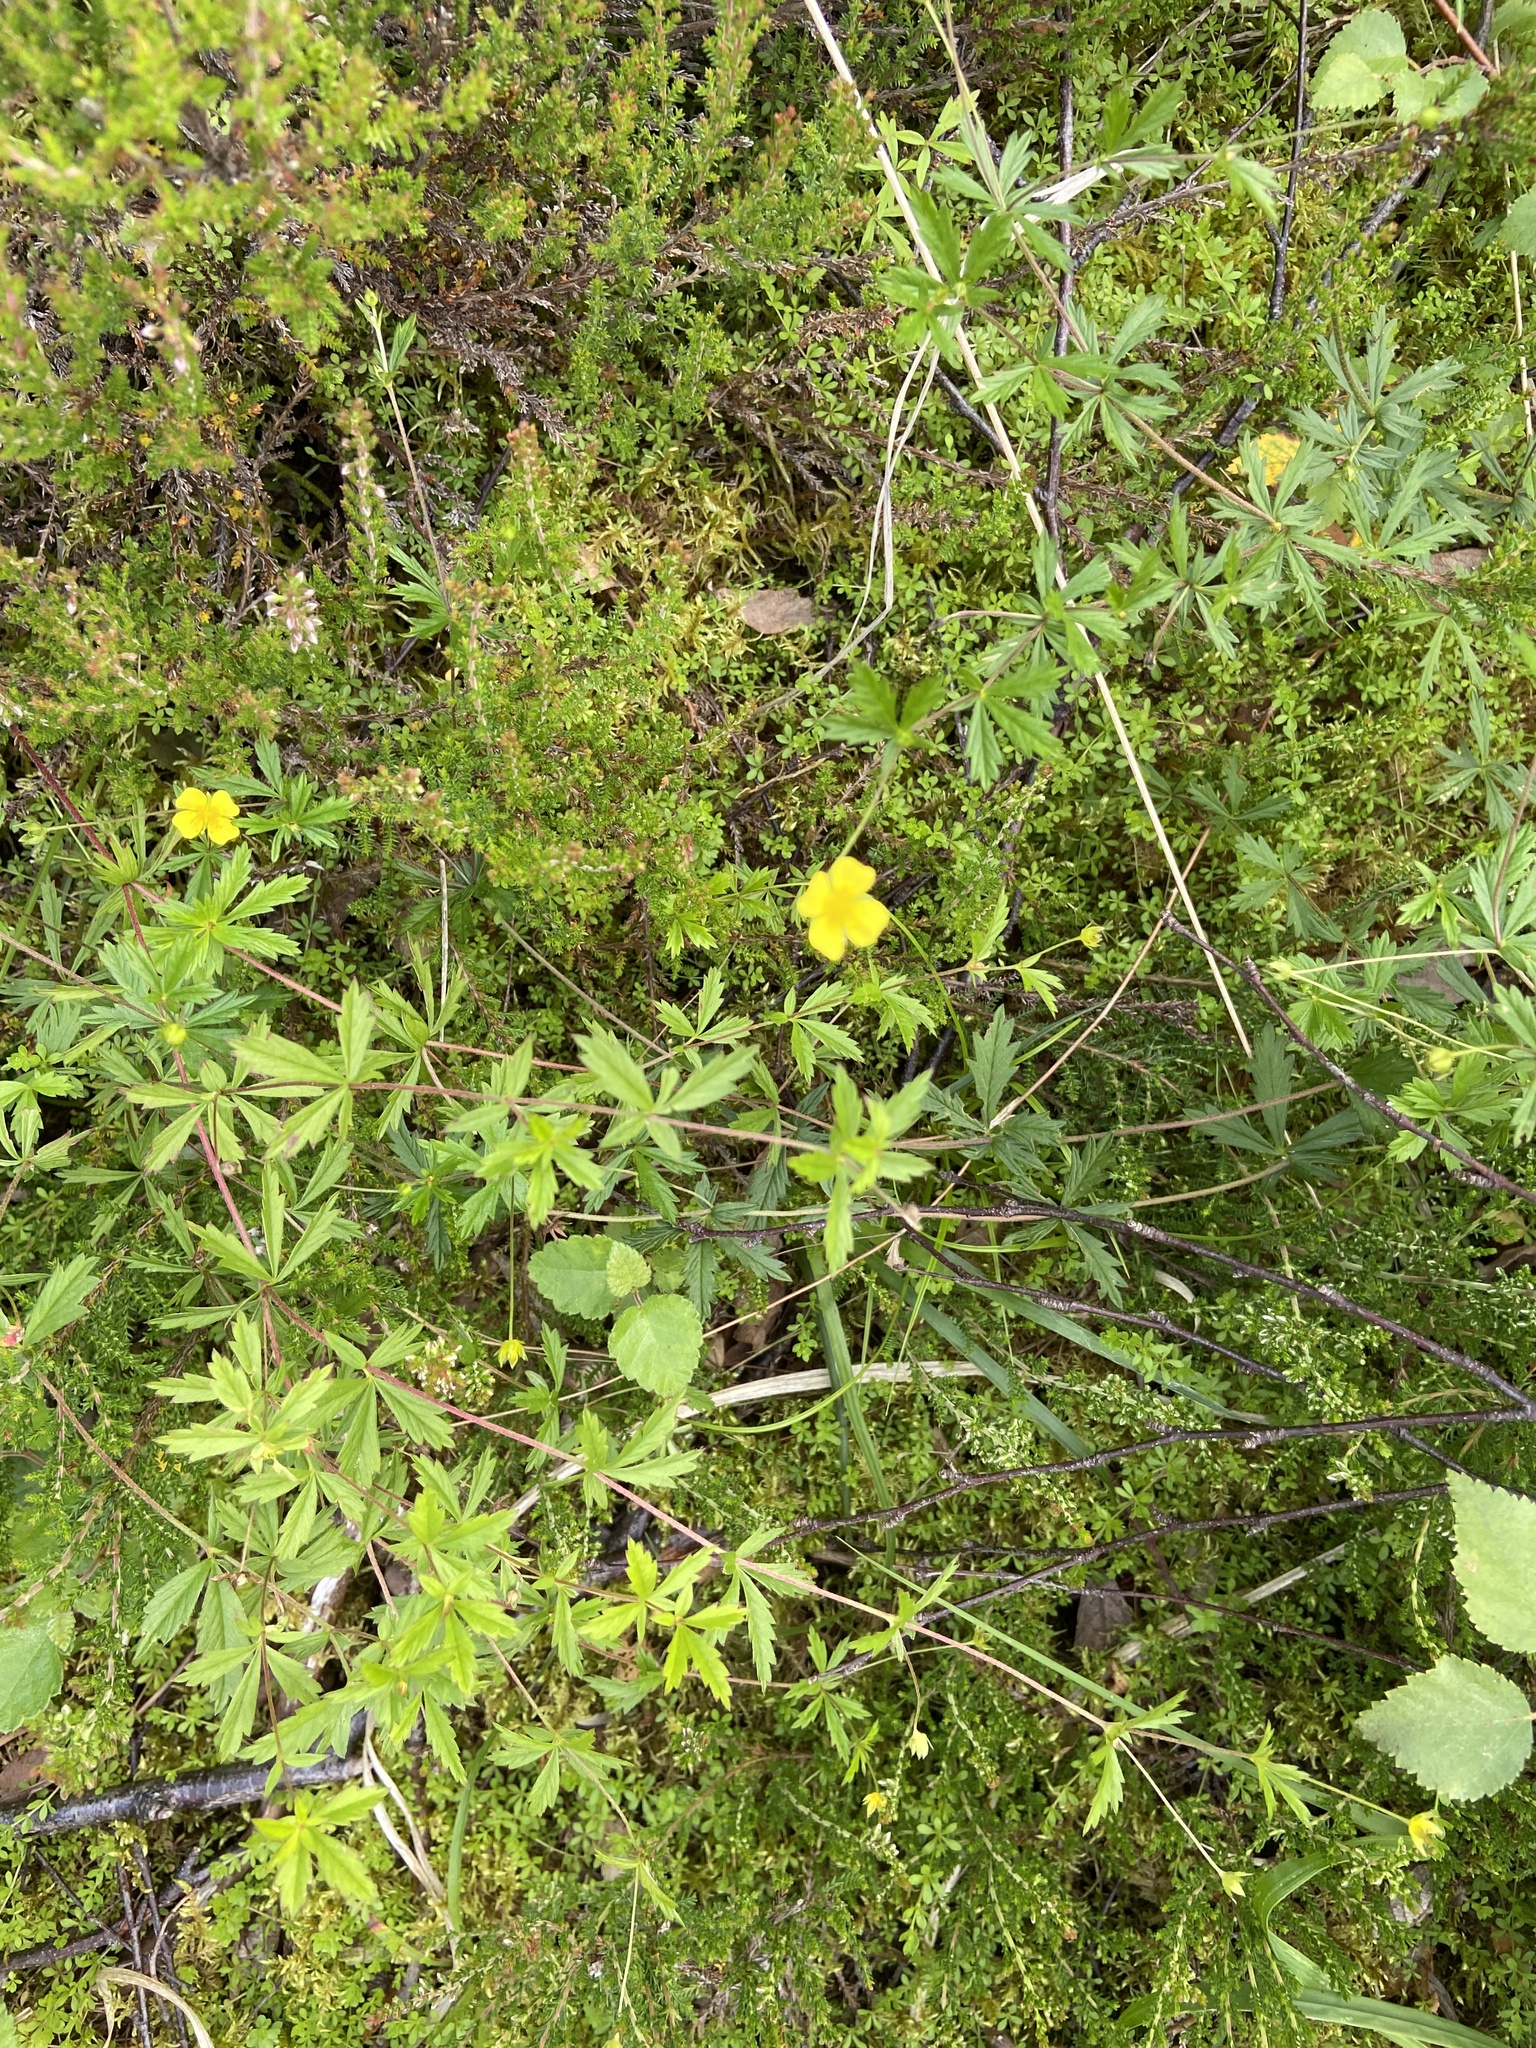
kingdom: Plantae
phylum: Tracheophyta
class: Magnoliopsida
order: Rosales
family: Rosaceae
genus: Potentilla
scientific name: Potentilla erecta
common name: Tormentil
